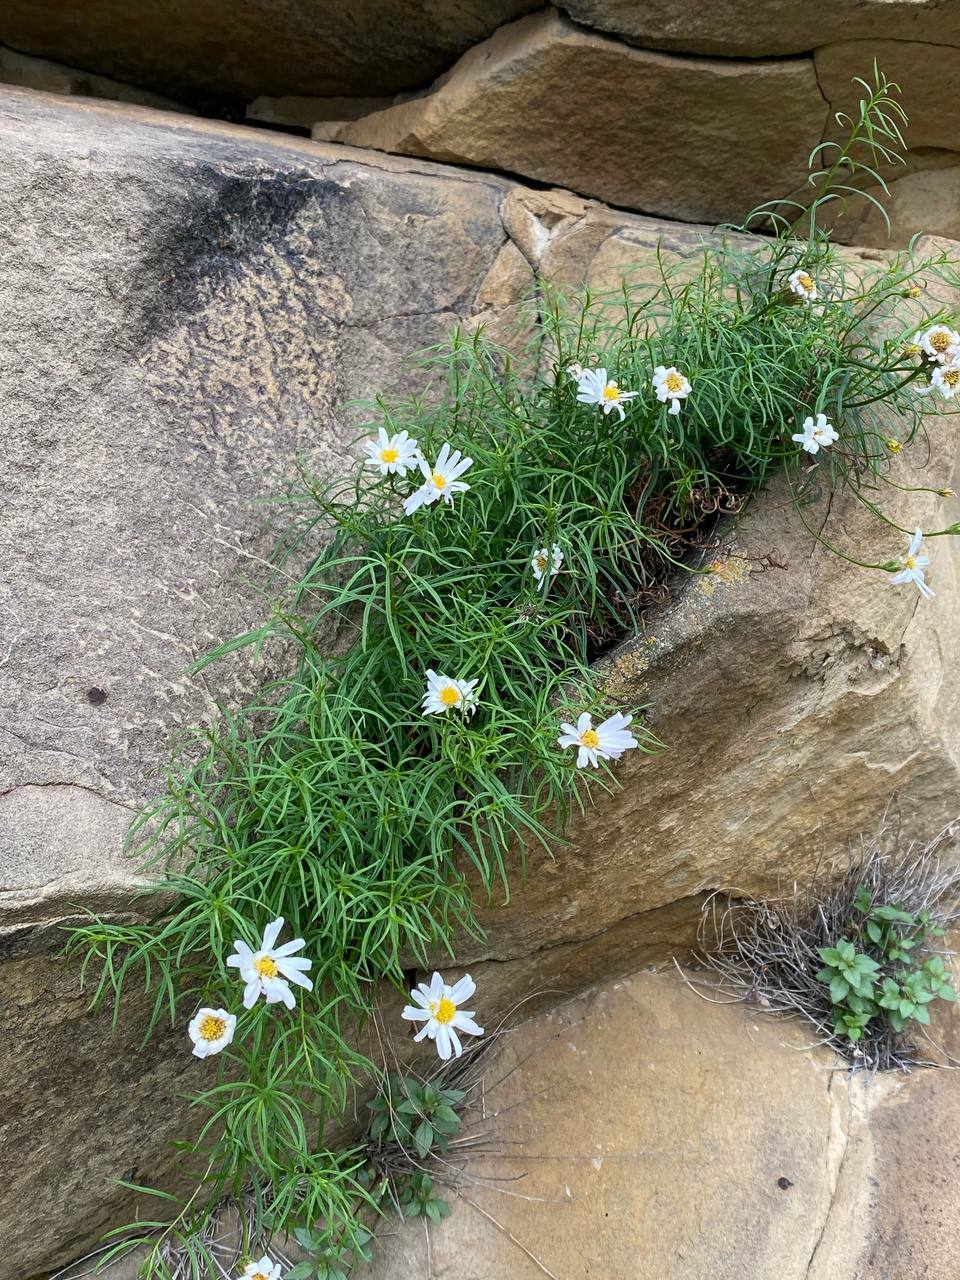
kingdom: Plantae
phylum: Tracheophyta
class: Magnoliopsida
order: Asterales
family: Asteraceae
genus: Kemulariella
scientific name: Kemulariella rosea
